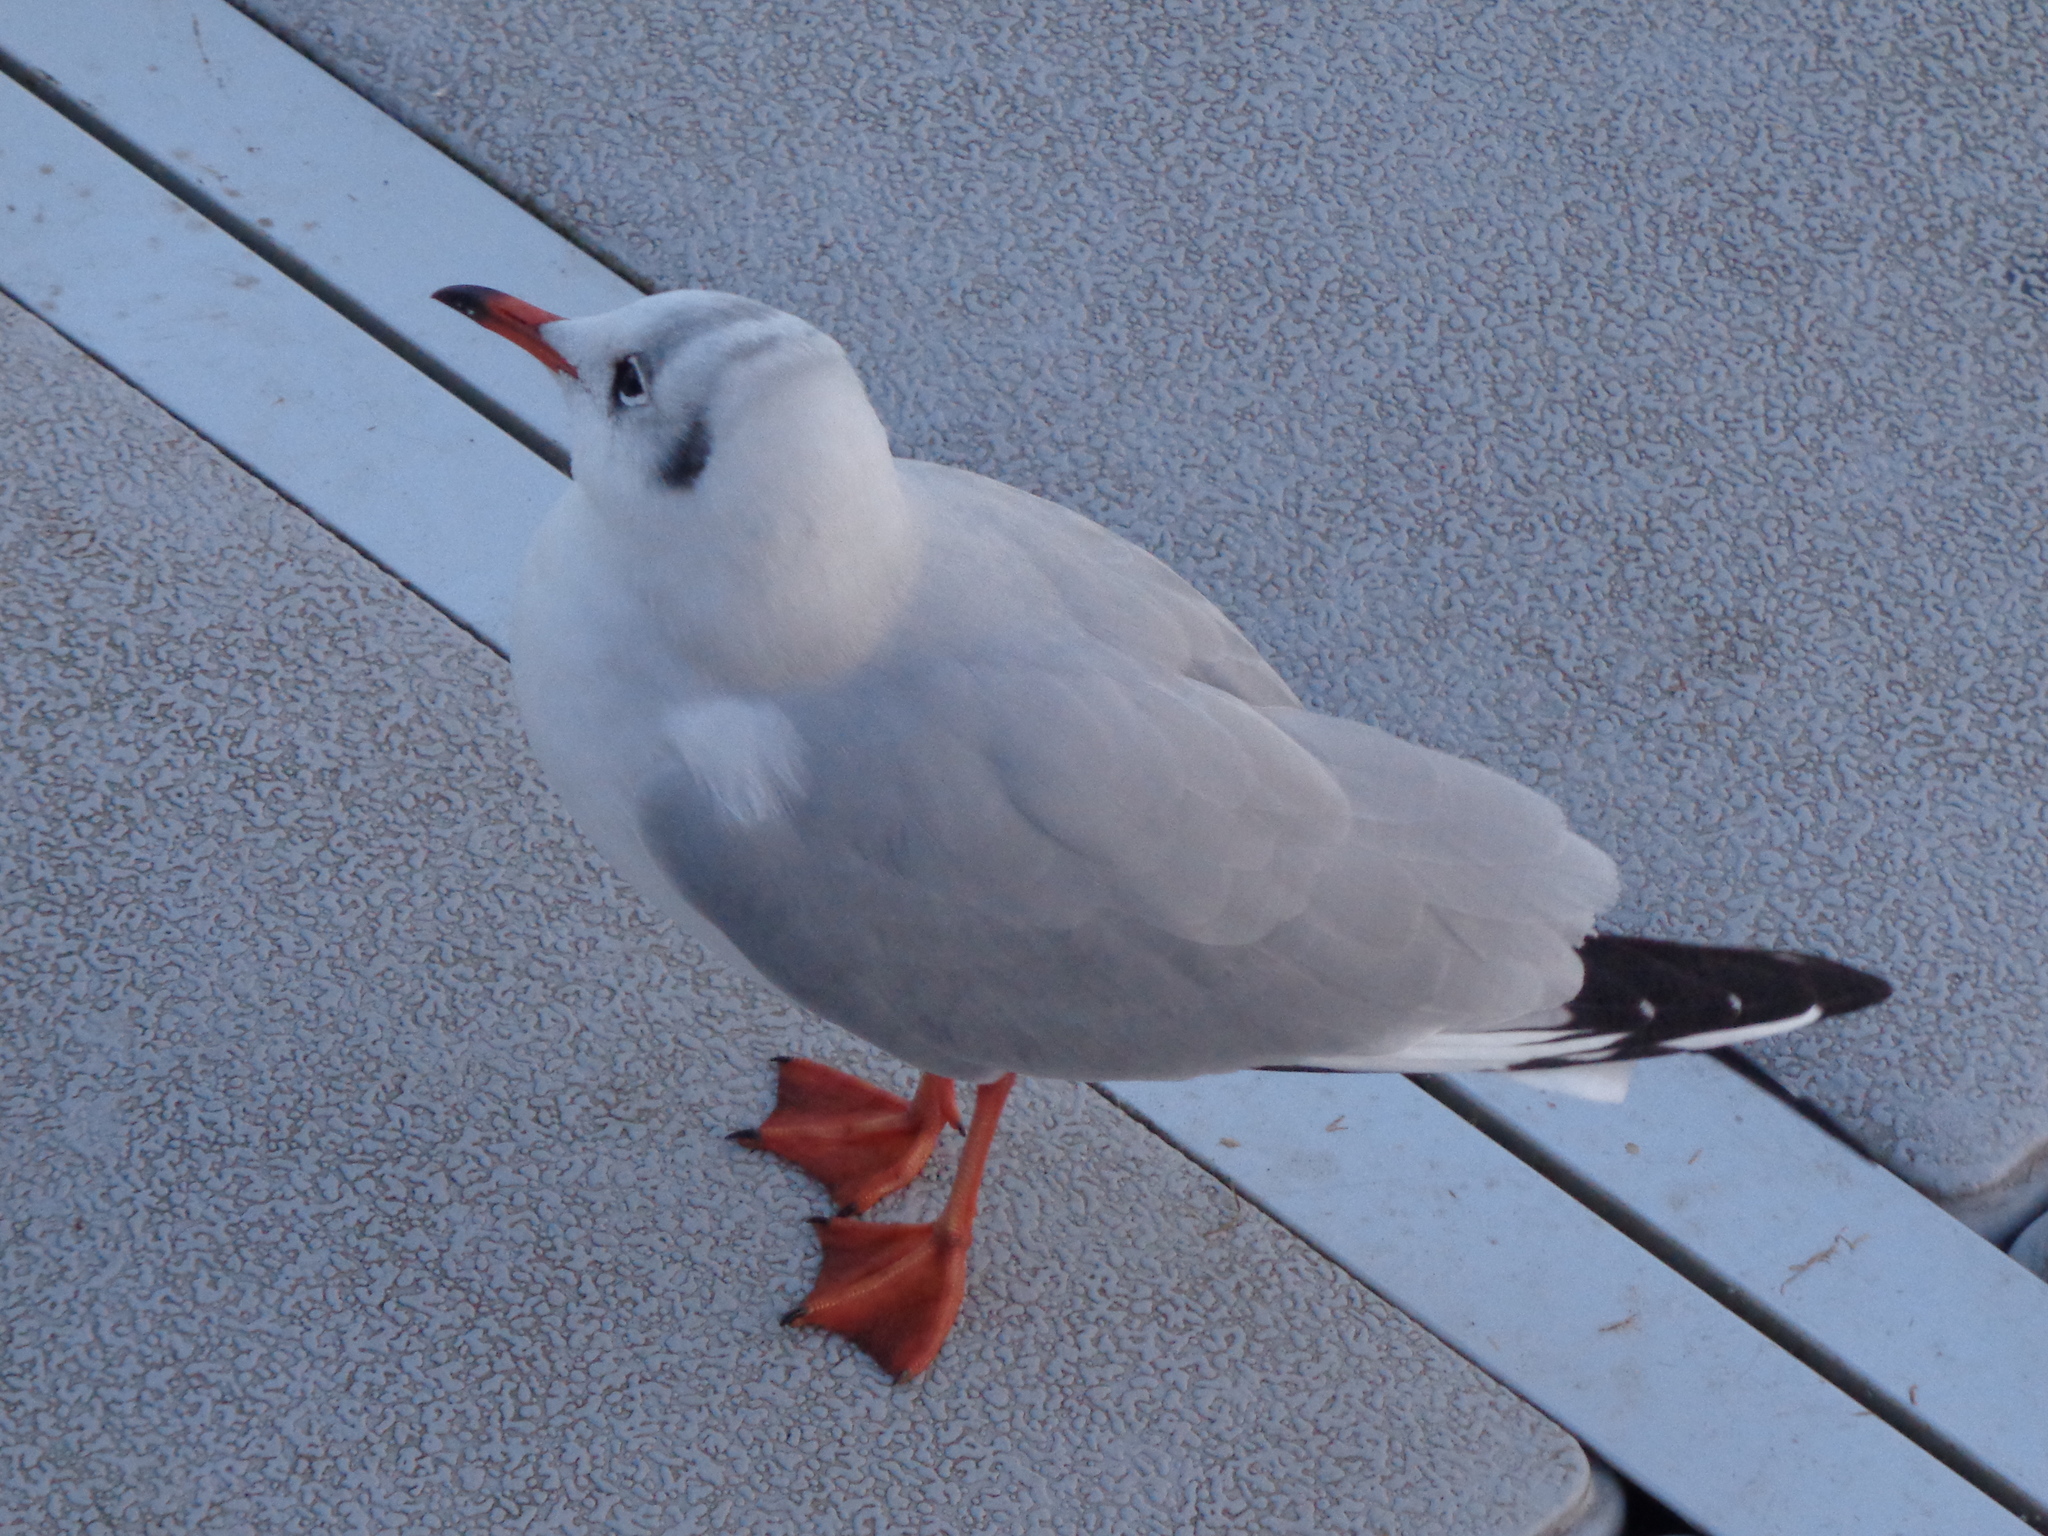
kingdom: Animalia
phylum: Chordata
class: Aves
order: Charadriiformes
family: Laridae
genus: Chroicocephalus
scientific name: Chroicocephalus ridibundus
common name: Black-headed gull
